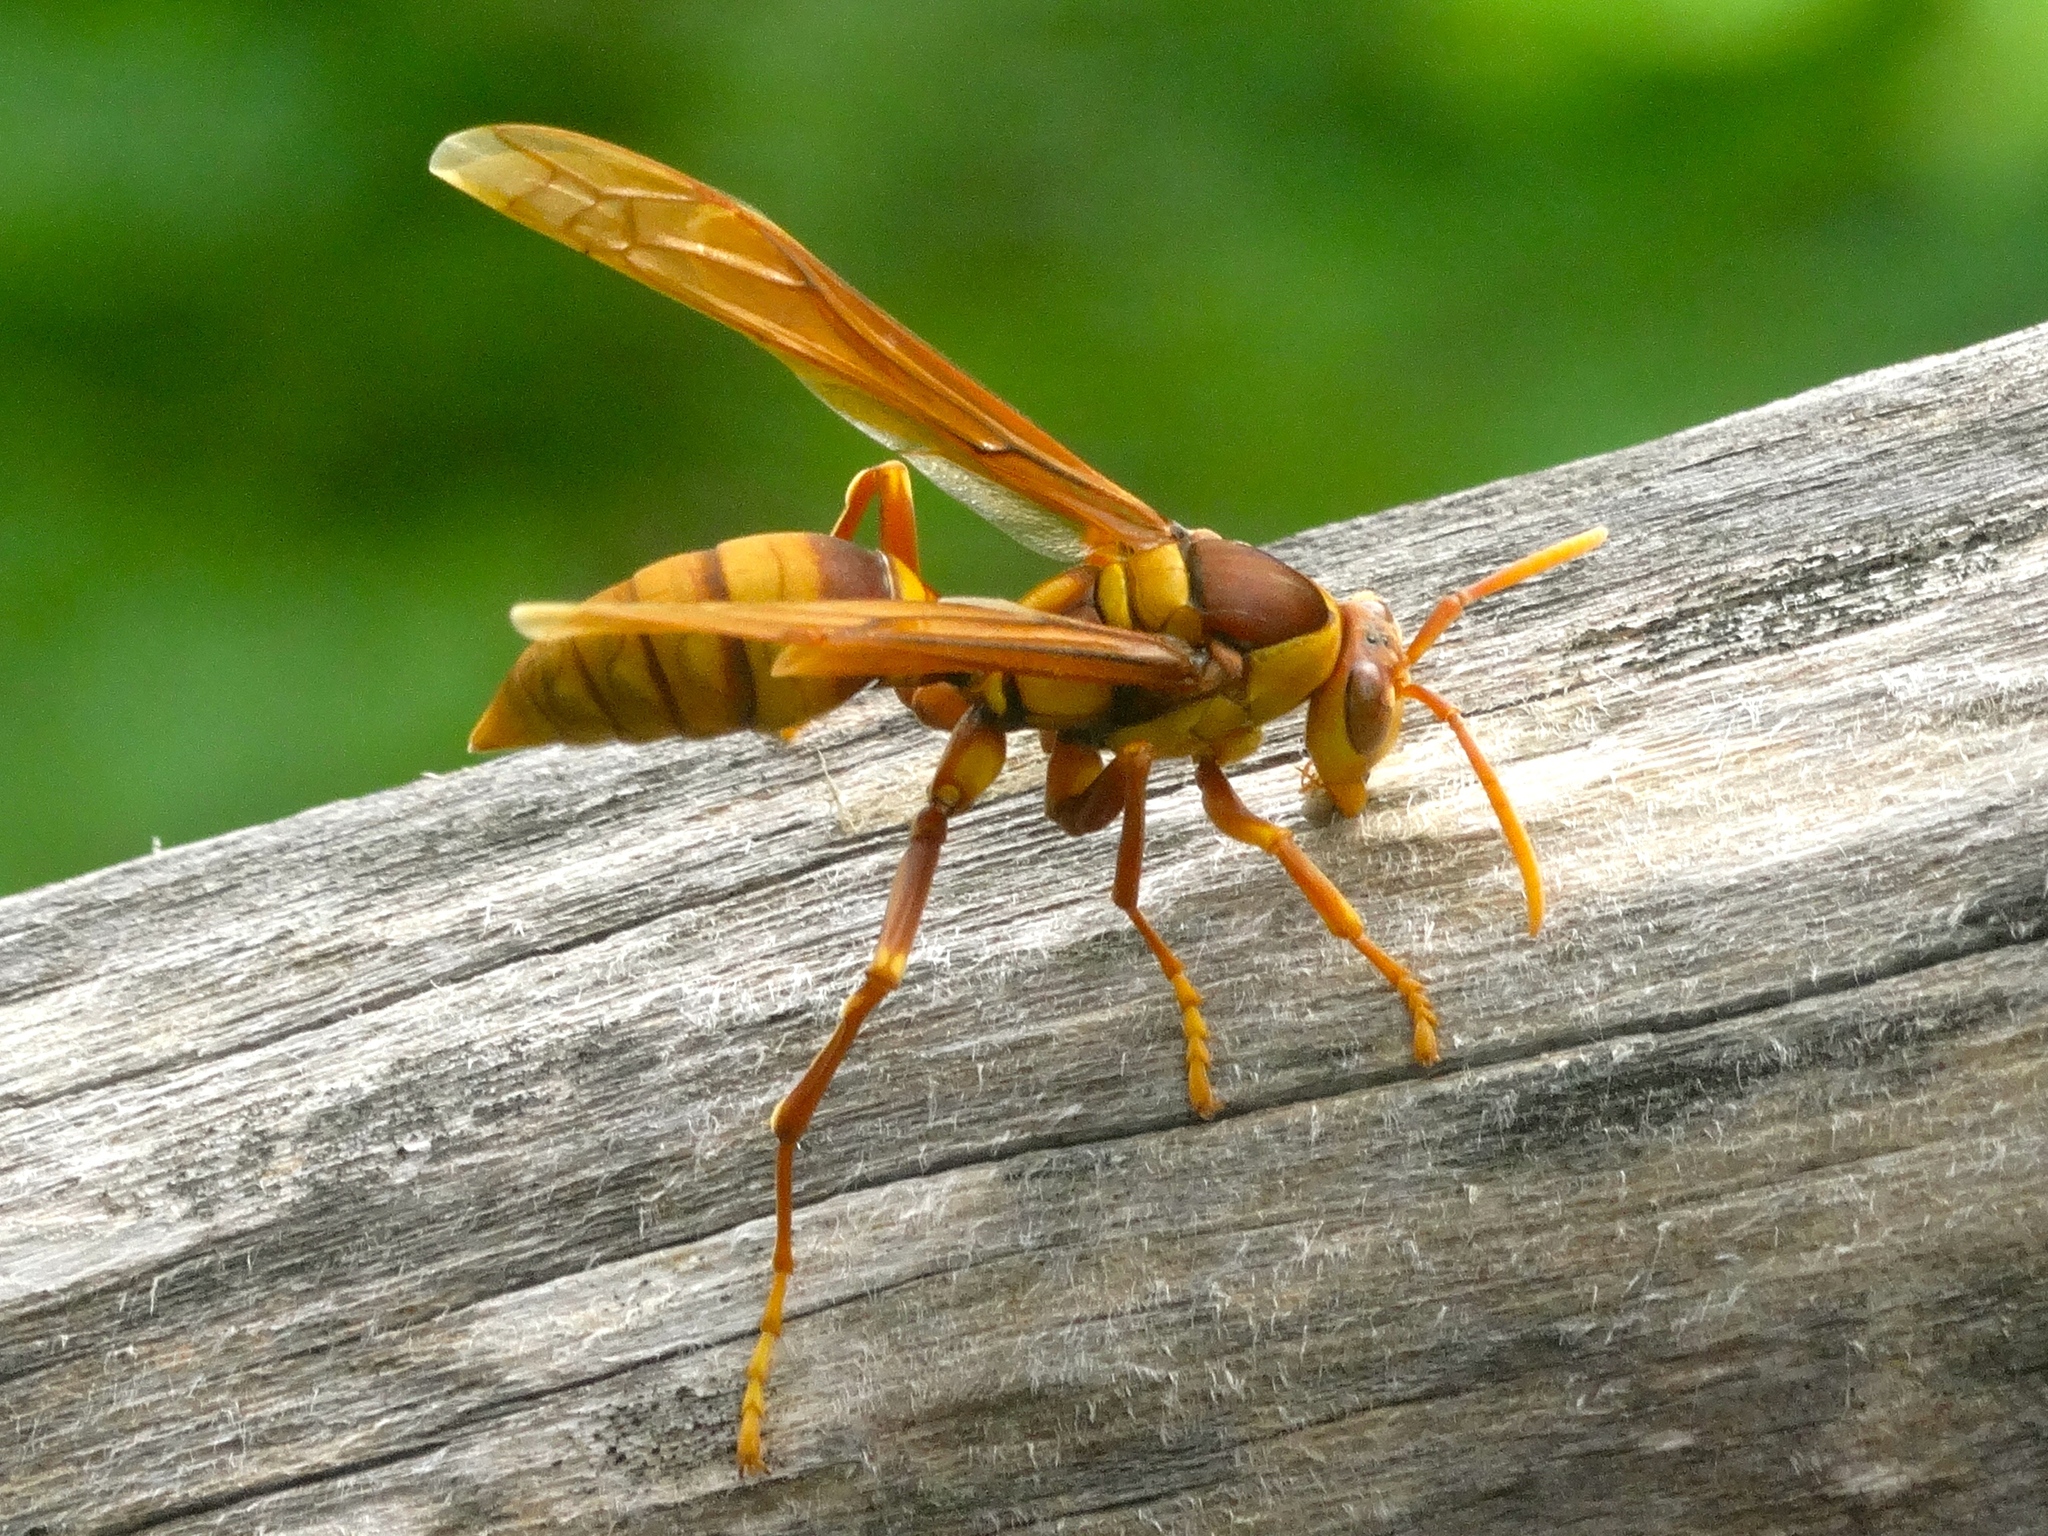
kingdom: Animalia
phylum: Arthropoda
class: Insecta
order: Hymenoptera
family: Eumenidae
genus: Polistes
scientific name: Polistes carnifex
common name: Paper wasp
